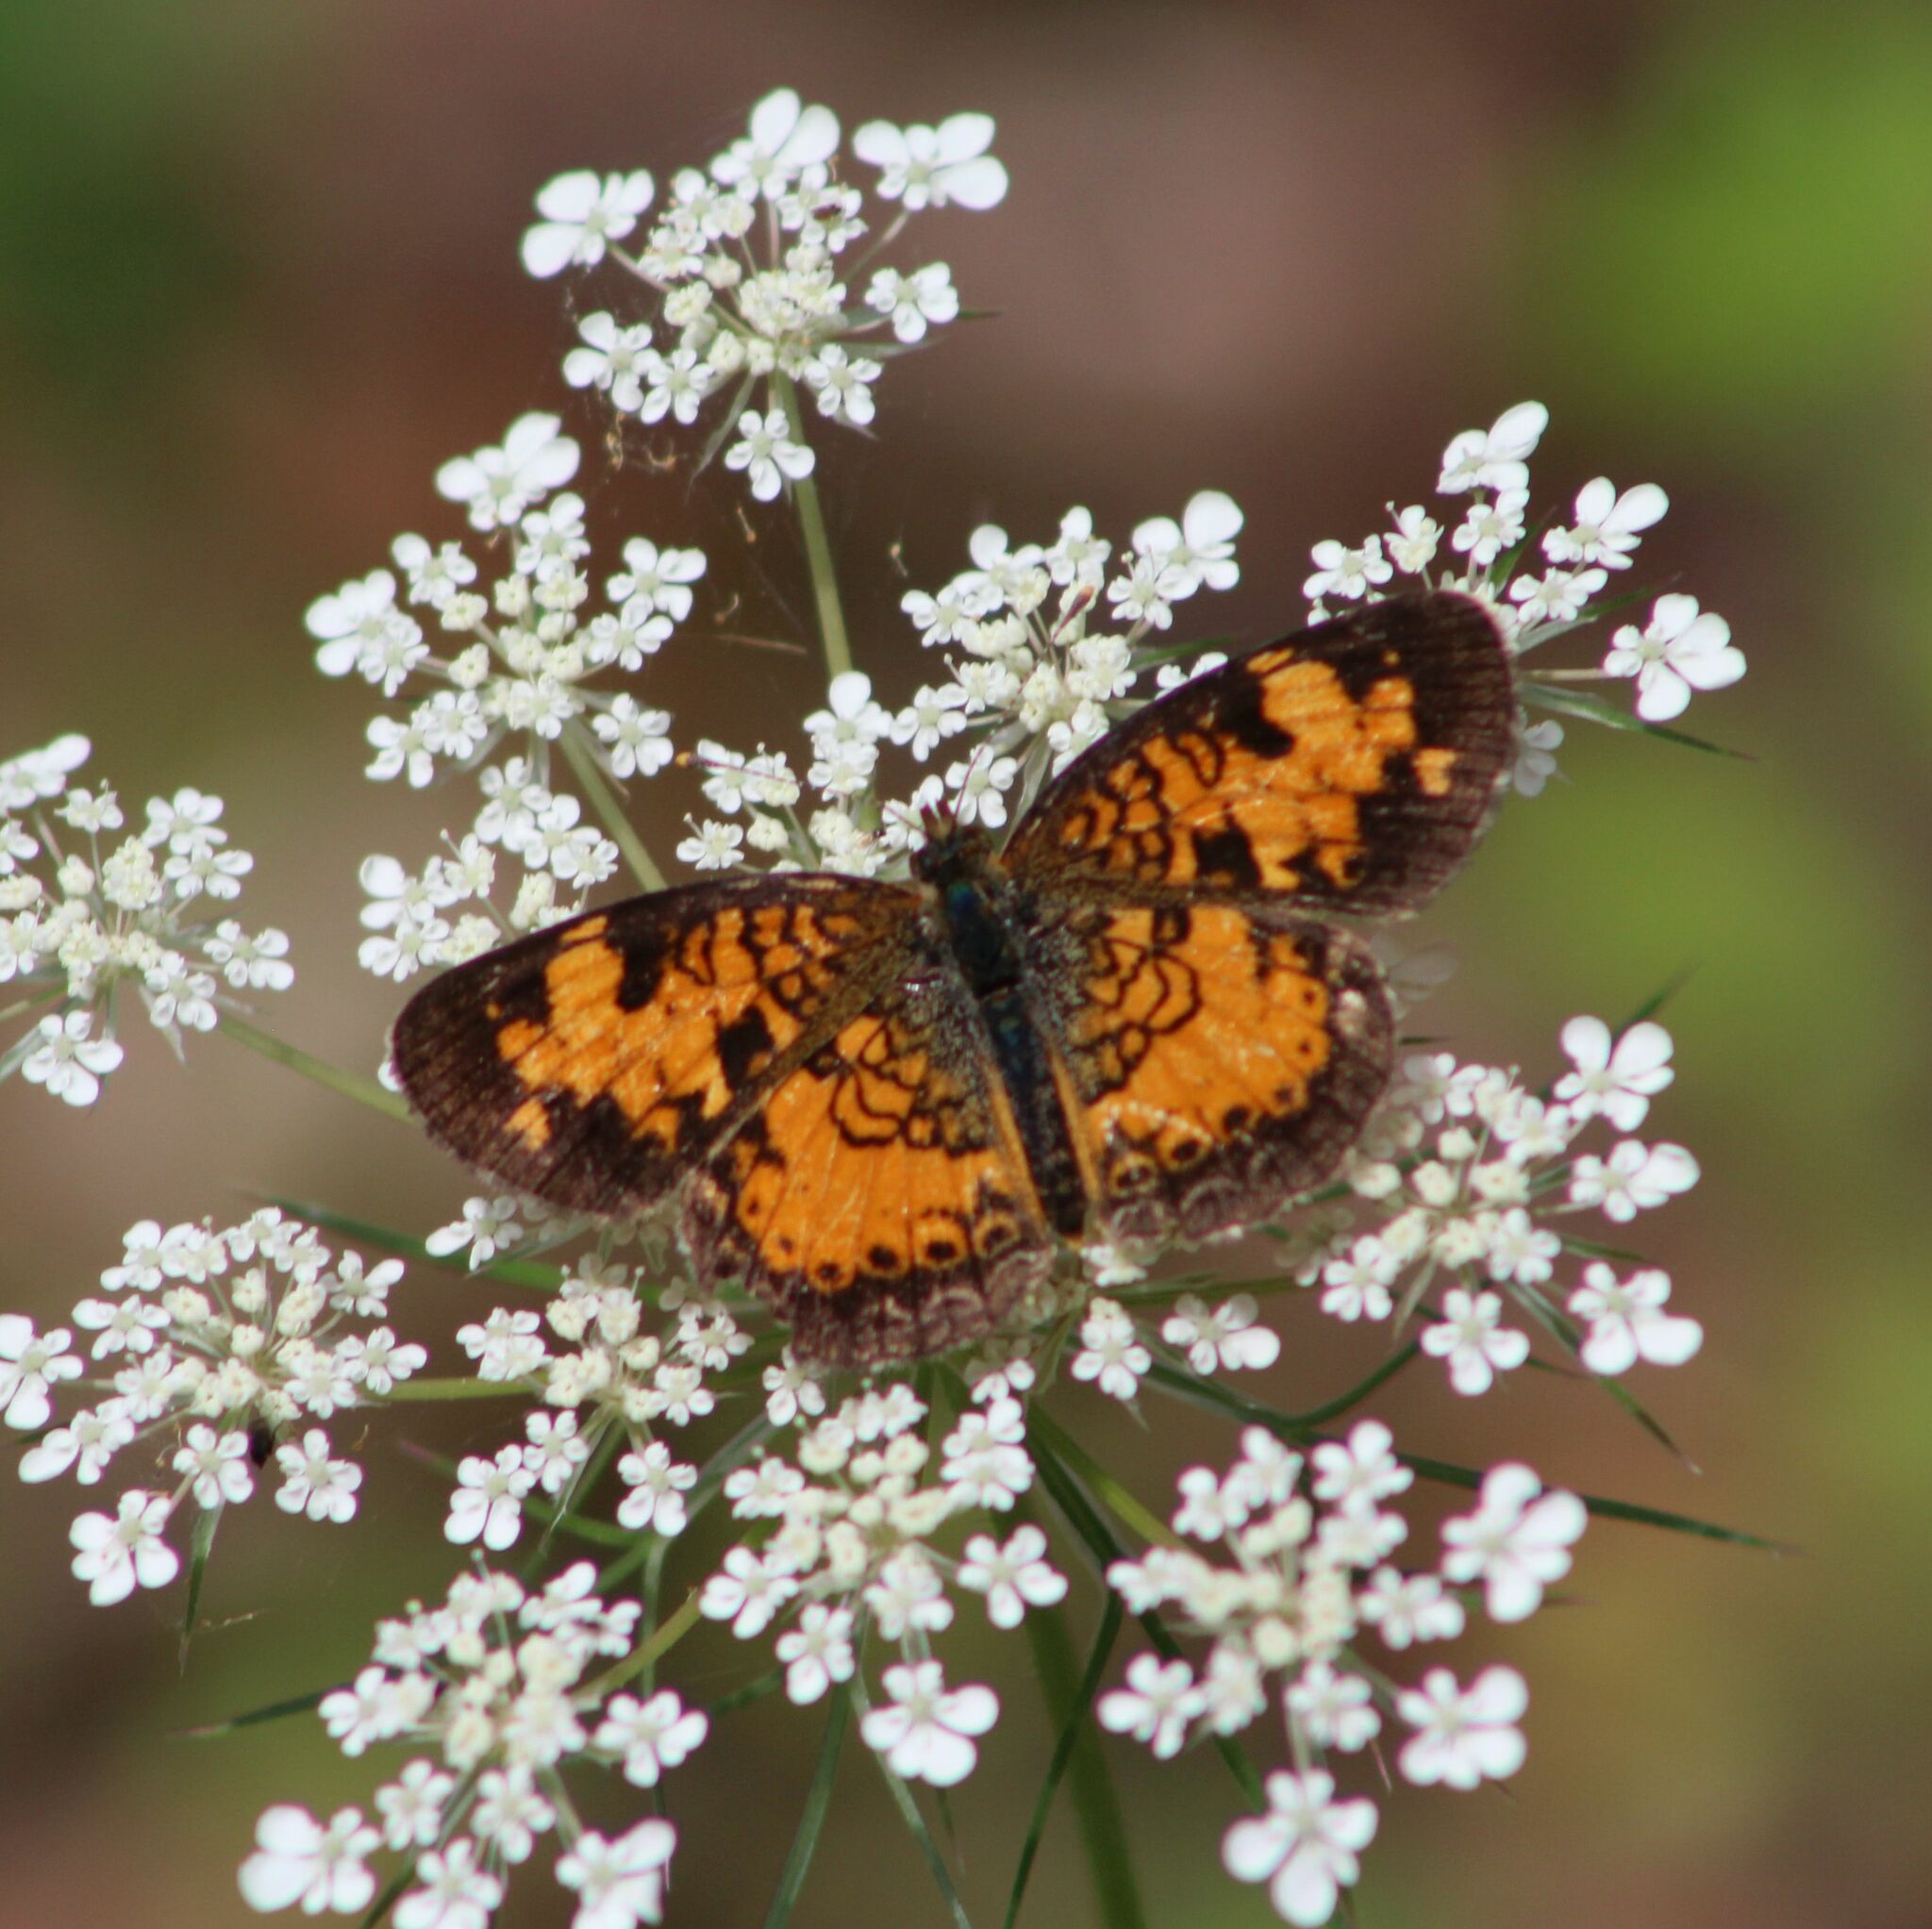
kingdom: Animalia
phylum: Arthropoda
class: Insecta
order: Lepidoptera
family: Nymphalidae
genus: Phyciodes
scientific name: Phyciodes tharos
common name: Pearl crescent
